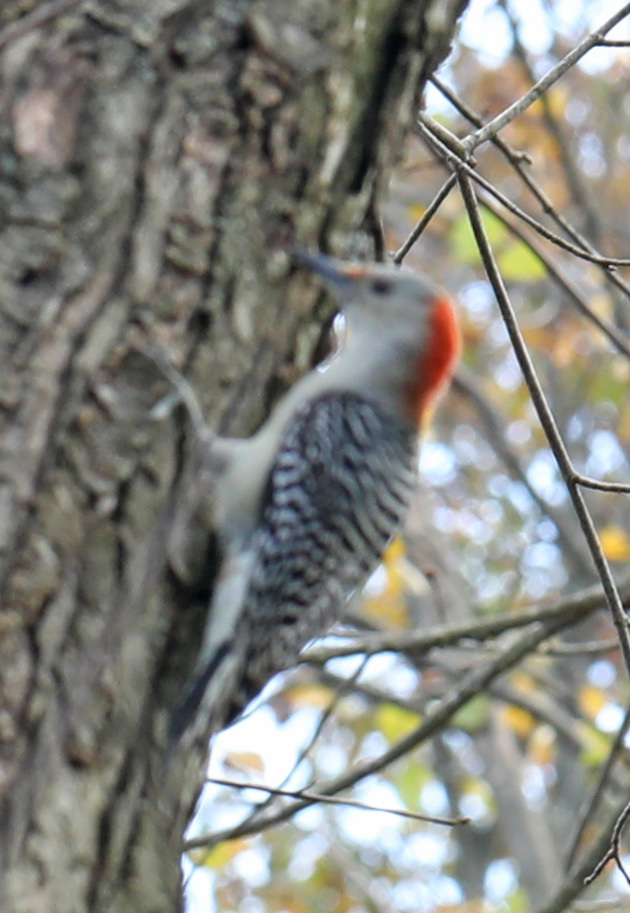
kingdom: Animalia
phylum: Chordata
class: Aves
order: Piciformes
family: Picidae
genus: Melanerpes
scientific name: Melanerpes carolinus
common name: Red-bellied woodpecker
